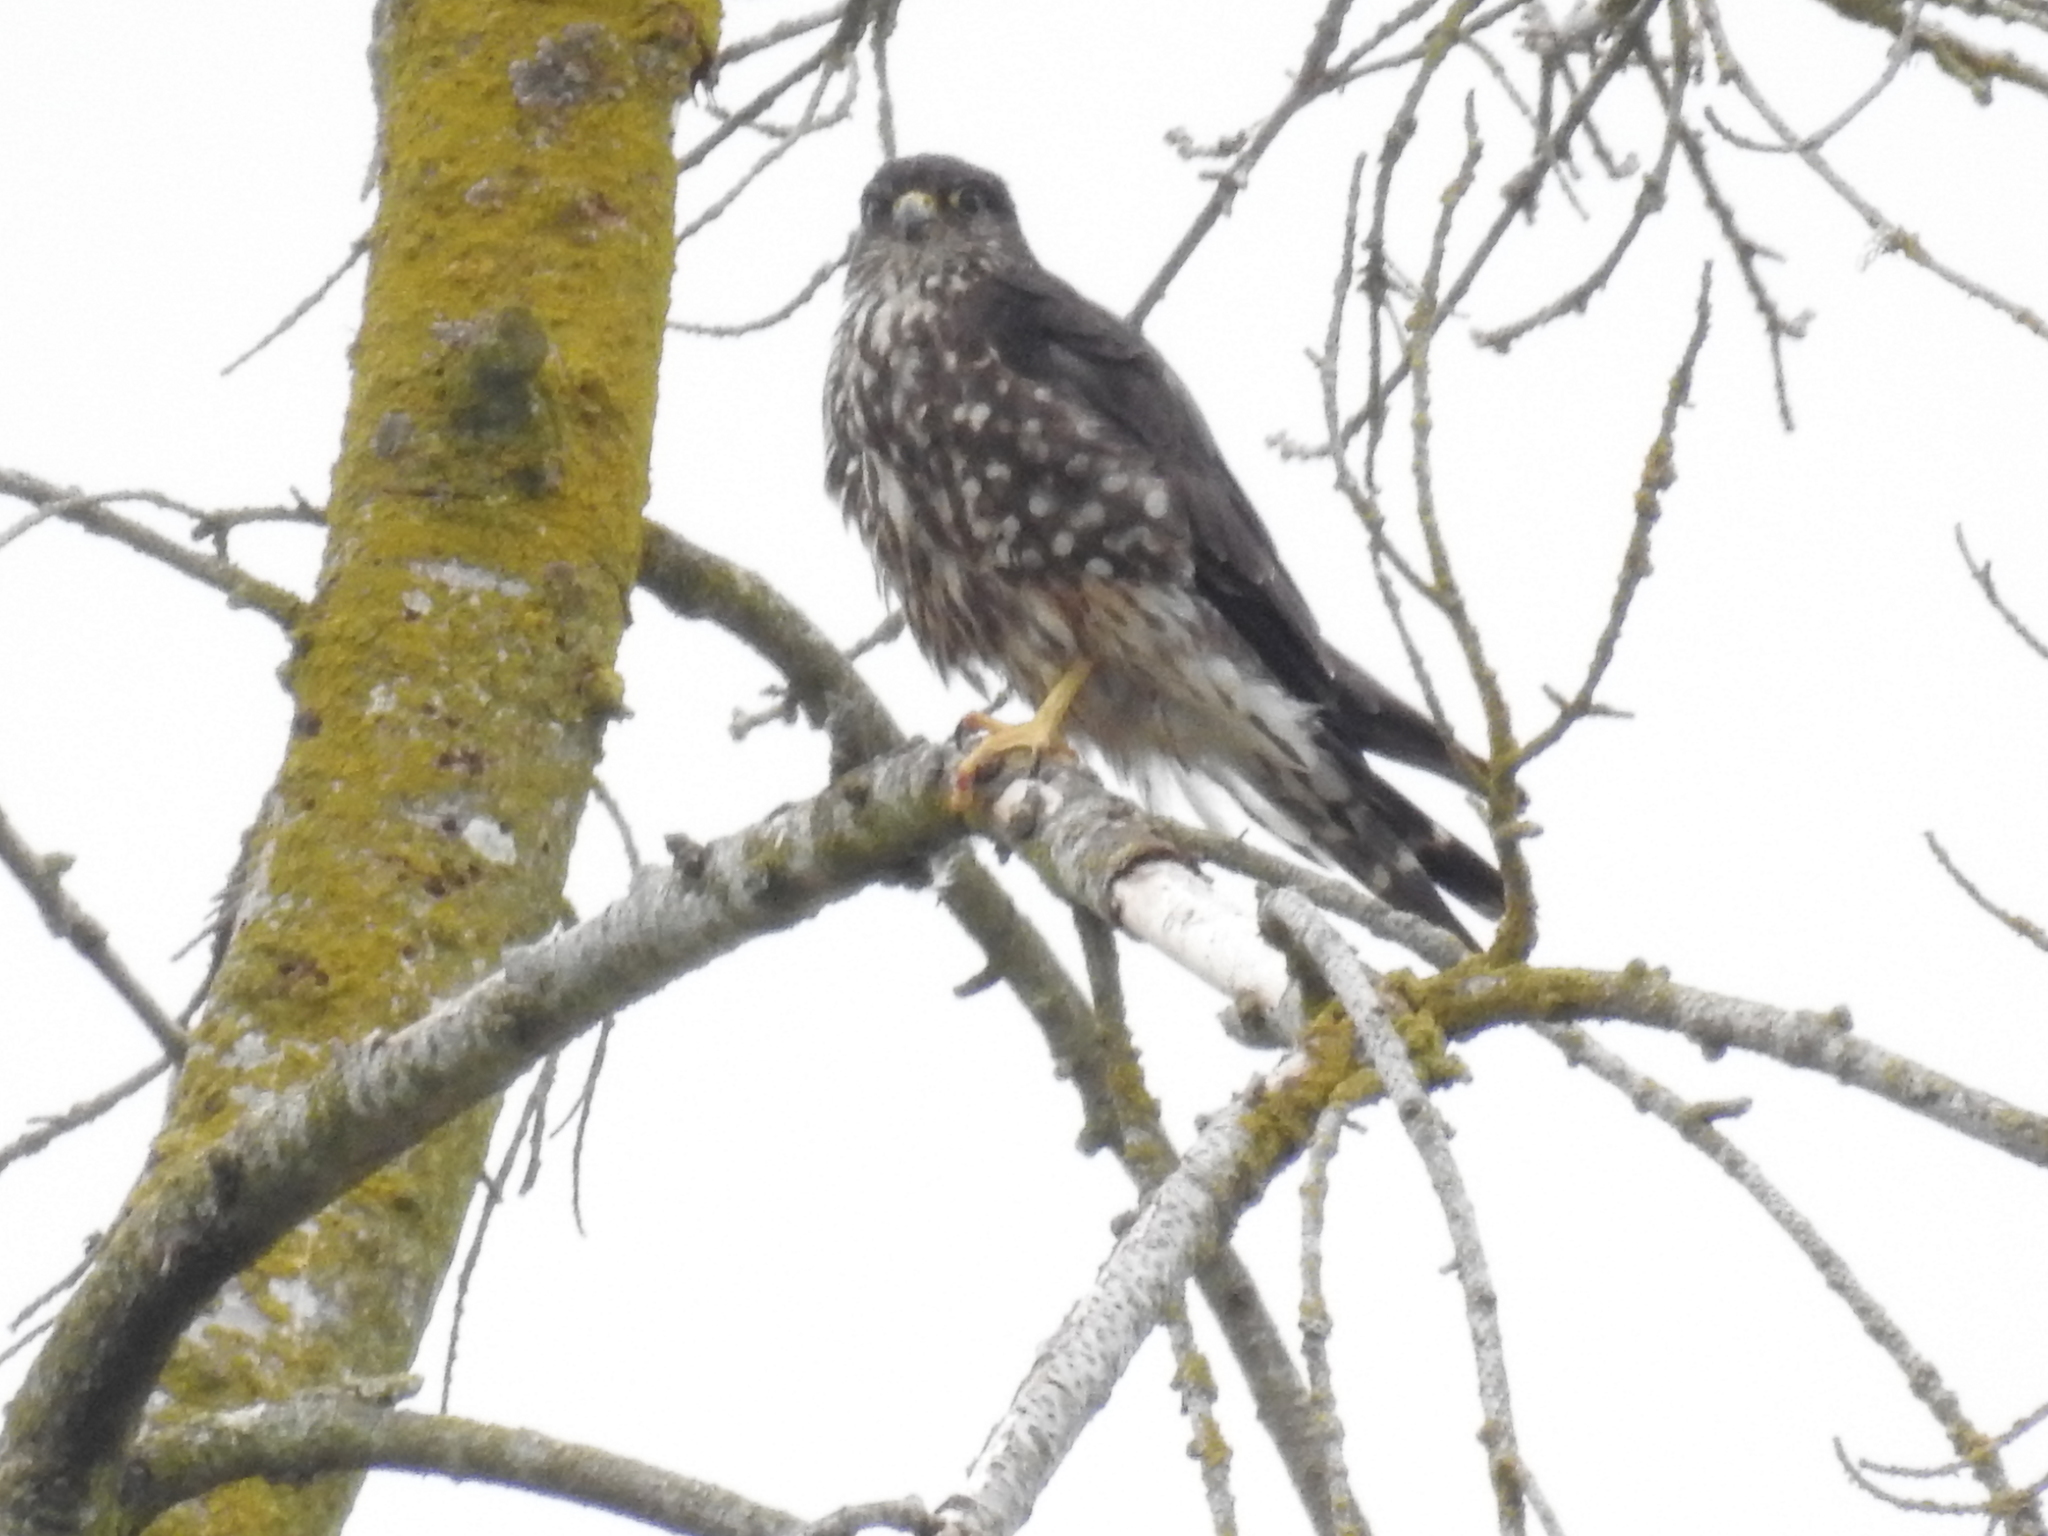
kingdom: Animalia
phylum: Chordata
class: Aves
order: Falconiformes
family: Falconidae
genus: Falco
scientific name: Falco columbarius
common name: Merlin
